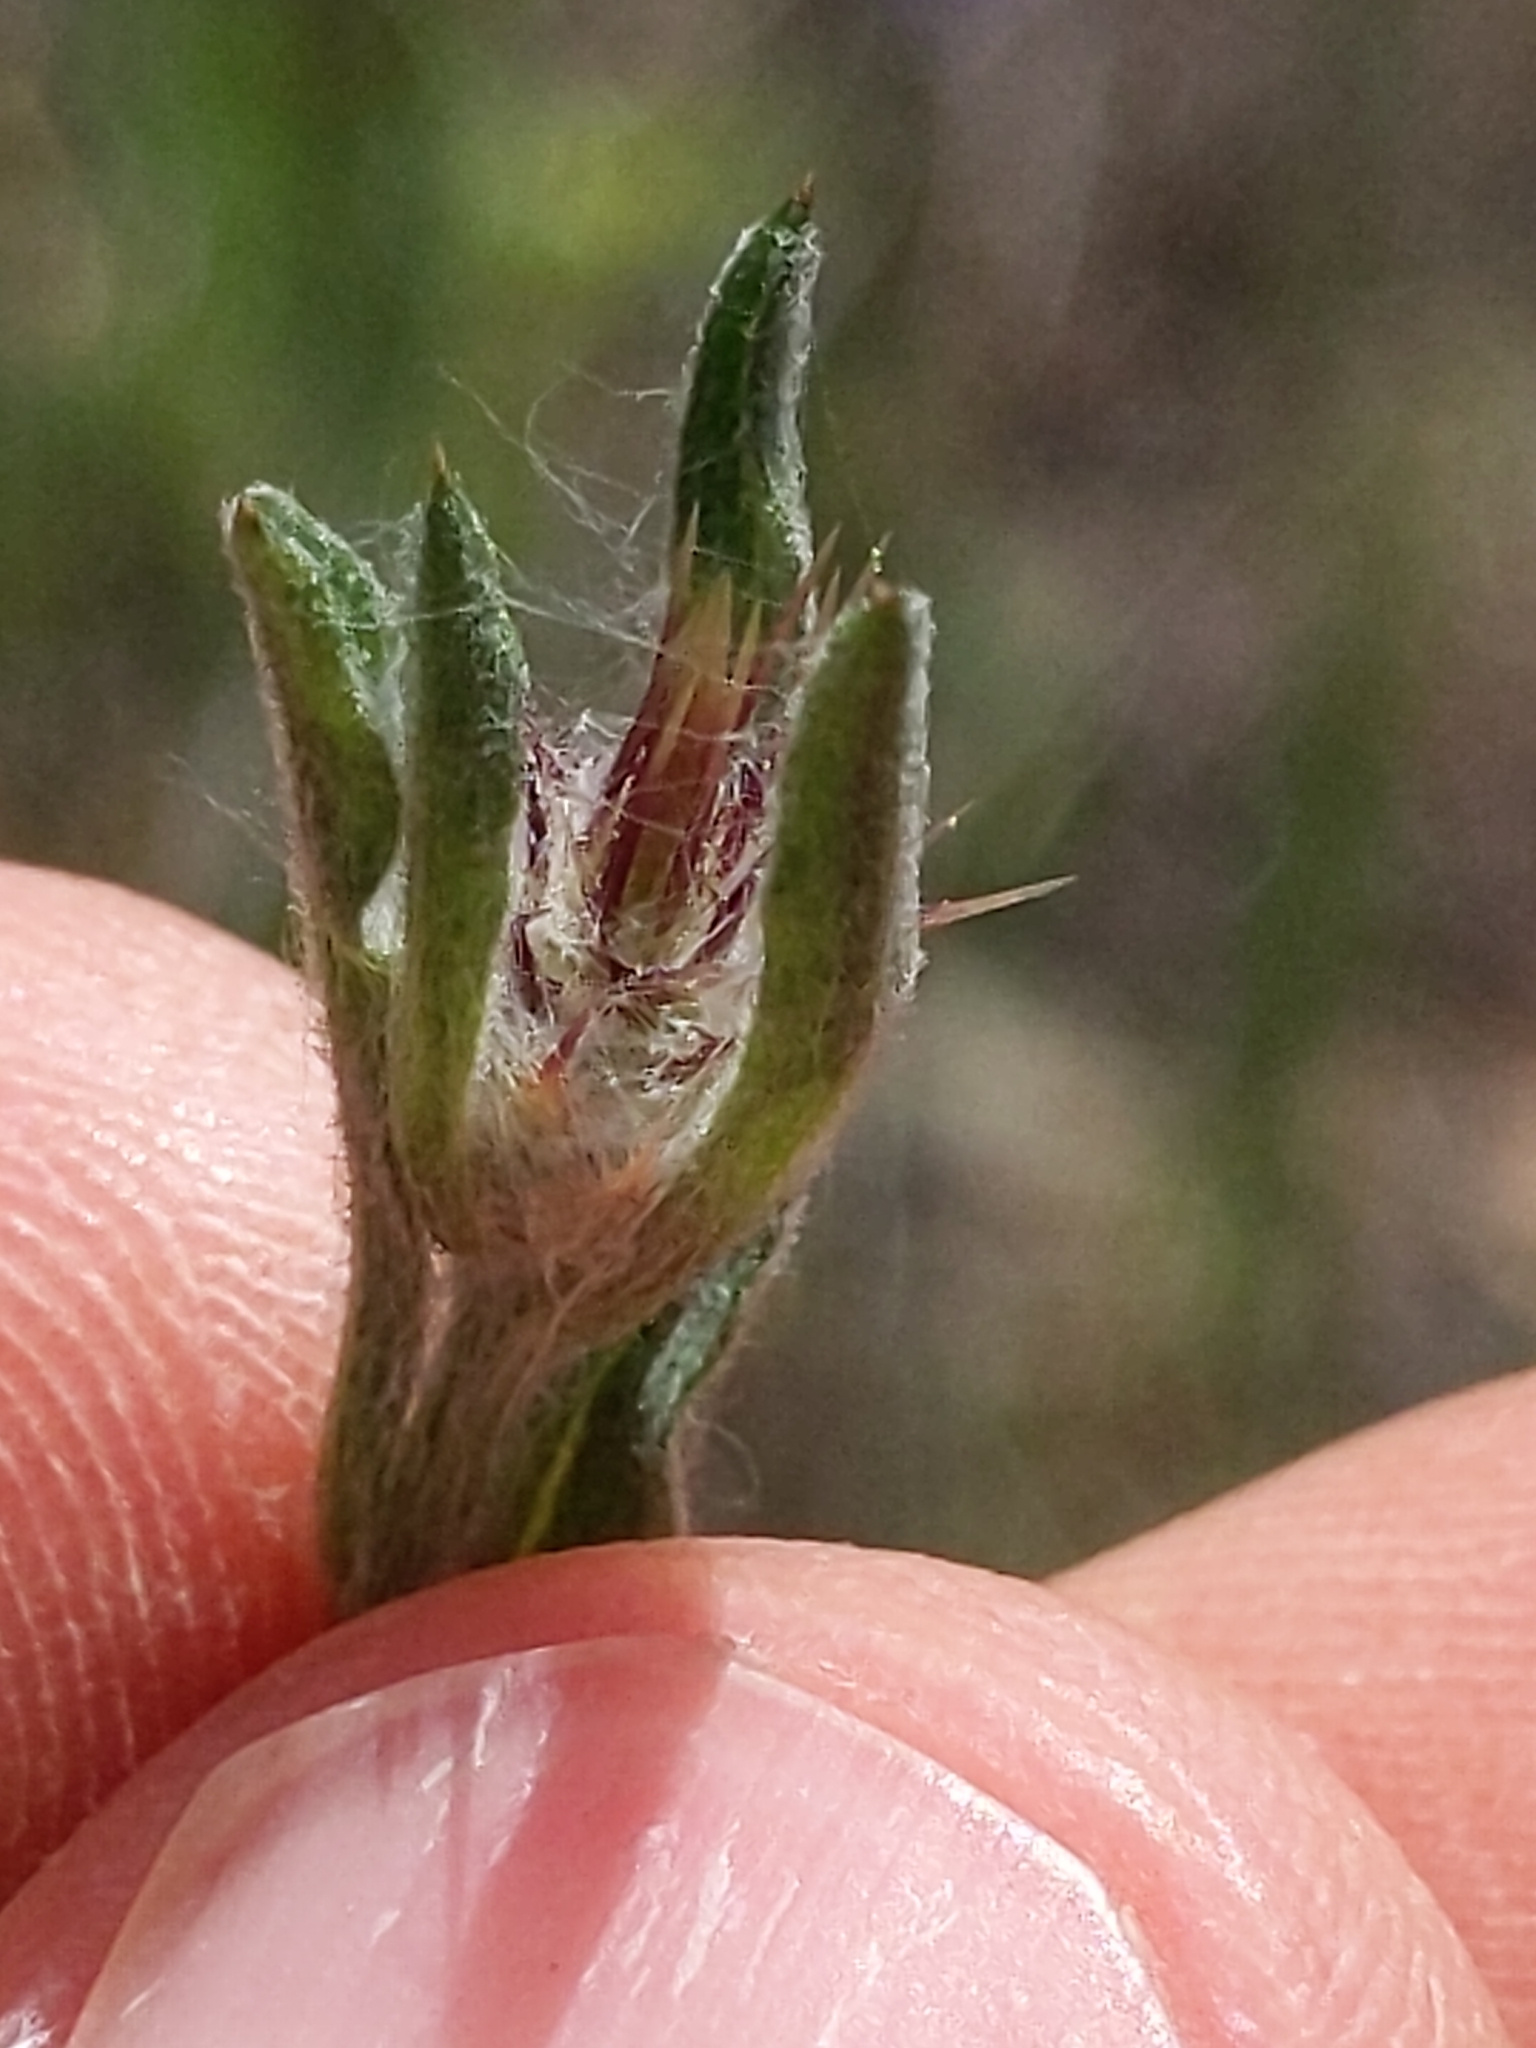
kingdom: Plantae
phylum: Tracheophyta
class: Magnoliopsida
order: Asterales
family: Asteraceae
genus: Centaurea
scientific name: Centaurea solstitialis
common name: Yellow star-thistle
